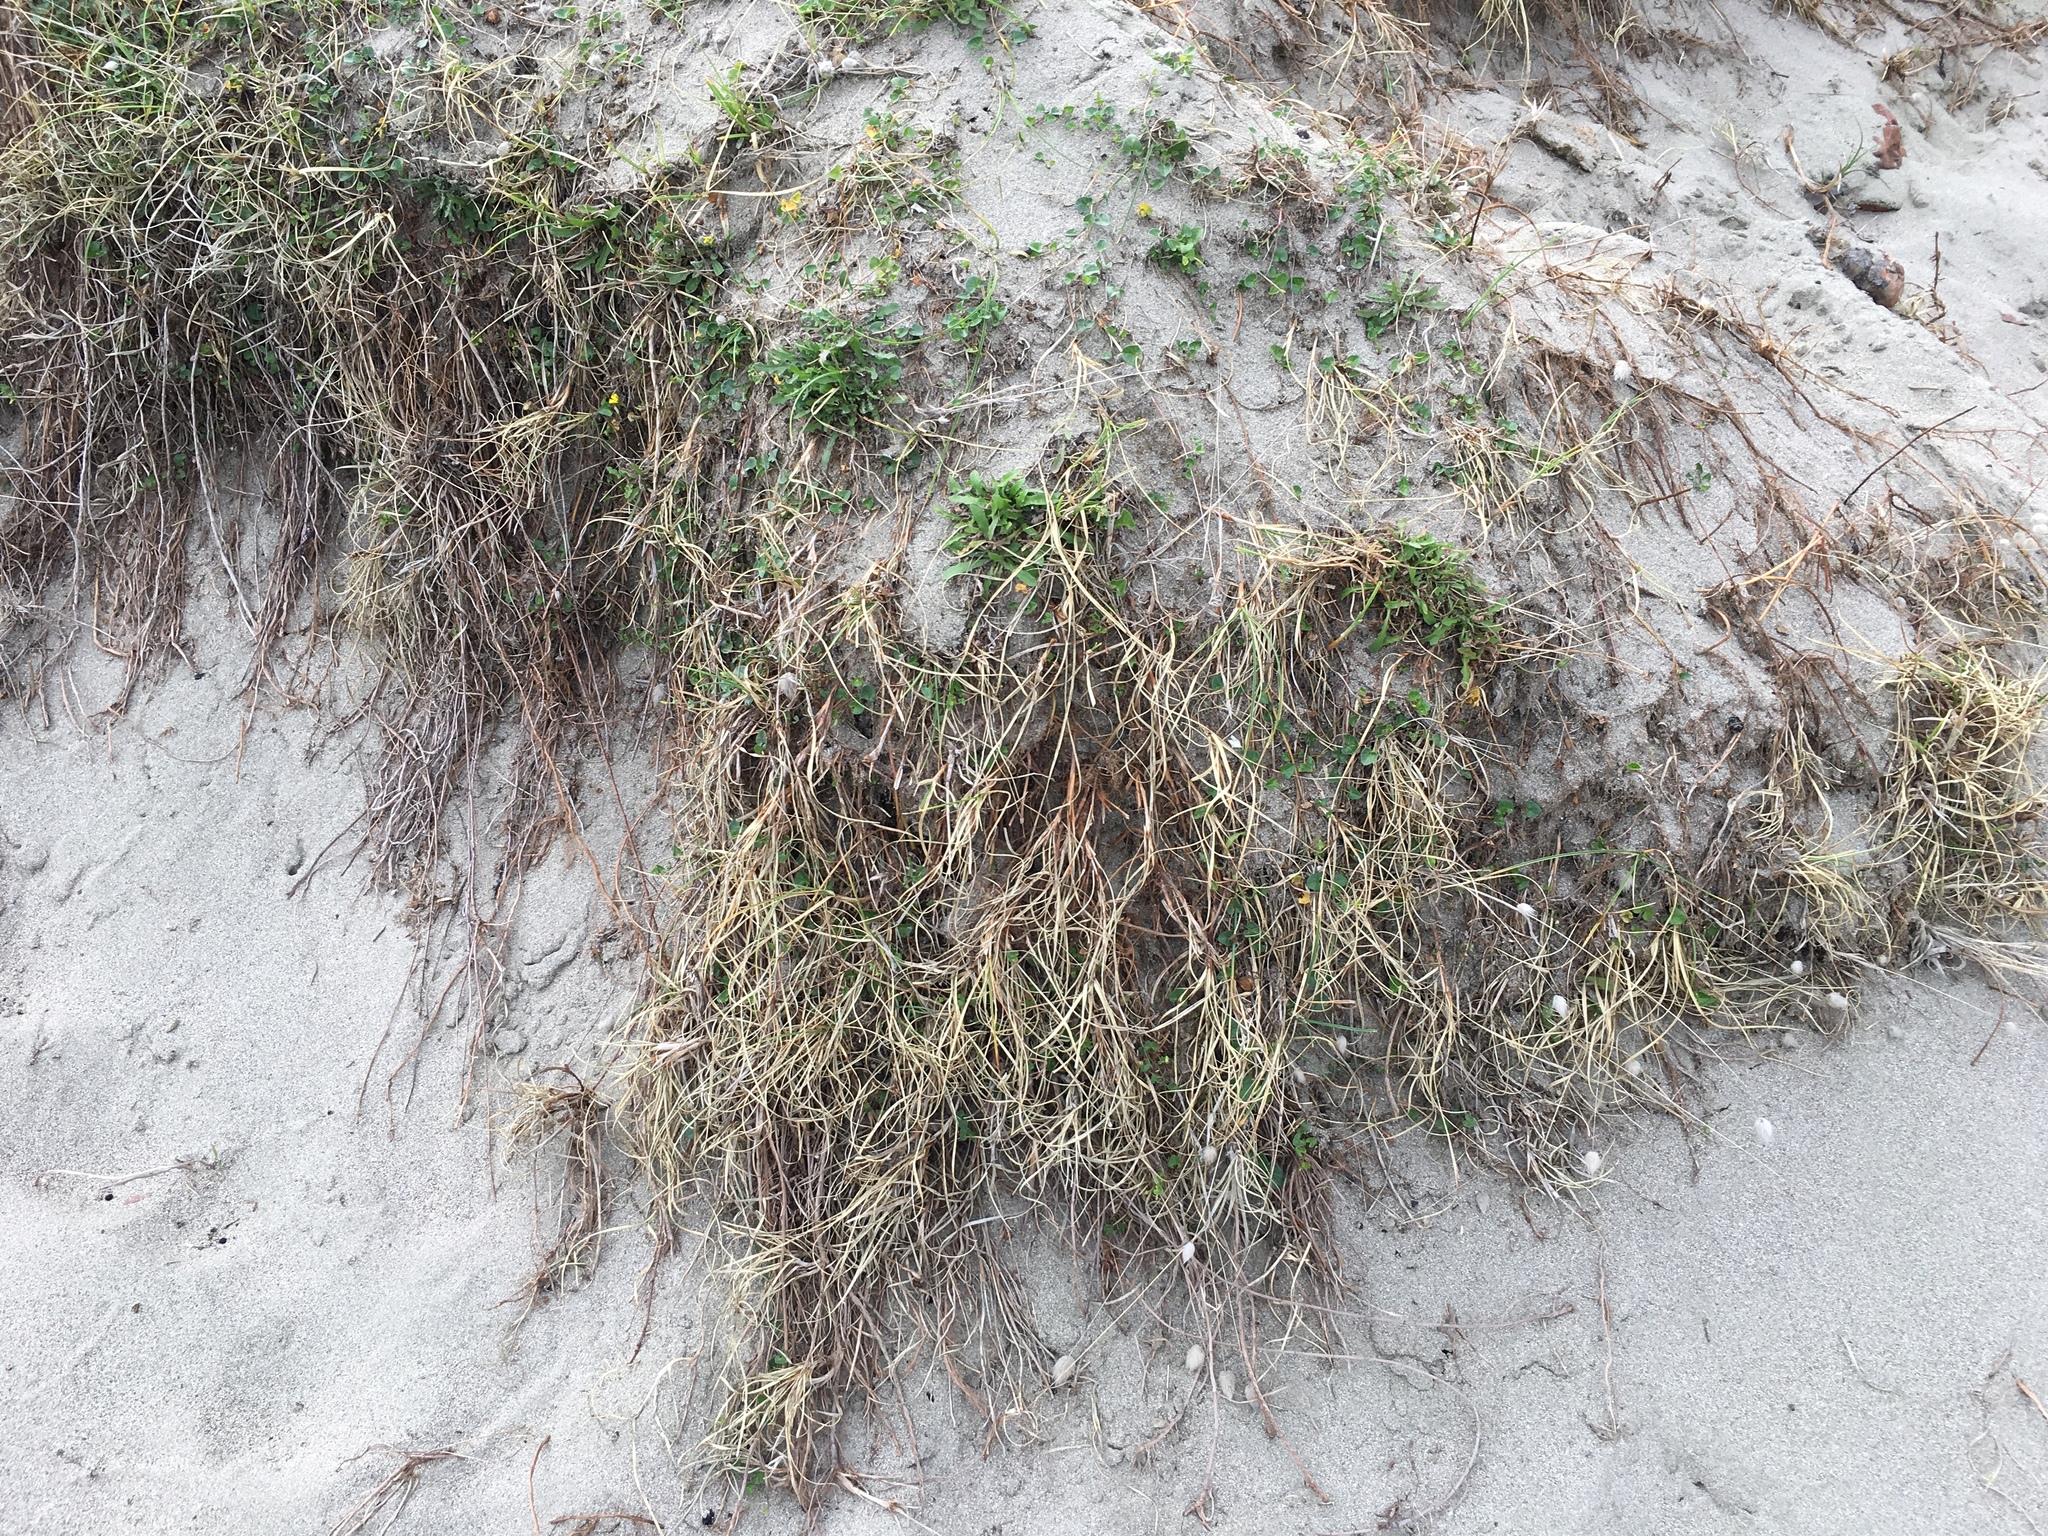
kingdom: Plantae
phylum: Tracheophyta
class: Liliopsida
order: Poales
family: Cyperaceae
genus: Carex
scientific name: Carex pumila
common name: Dwarf sedge
